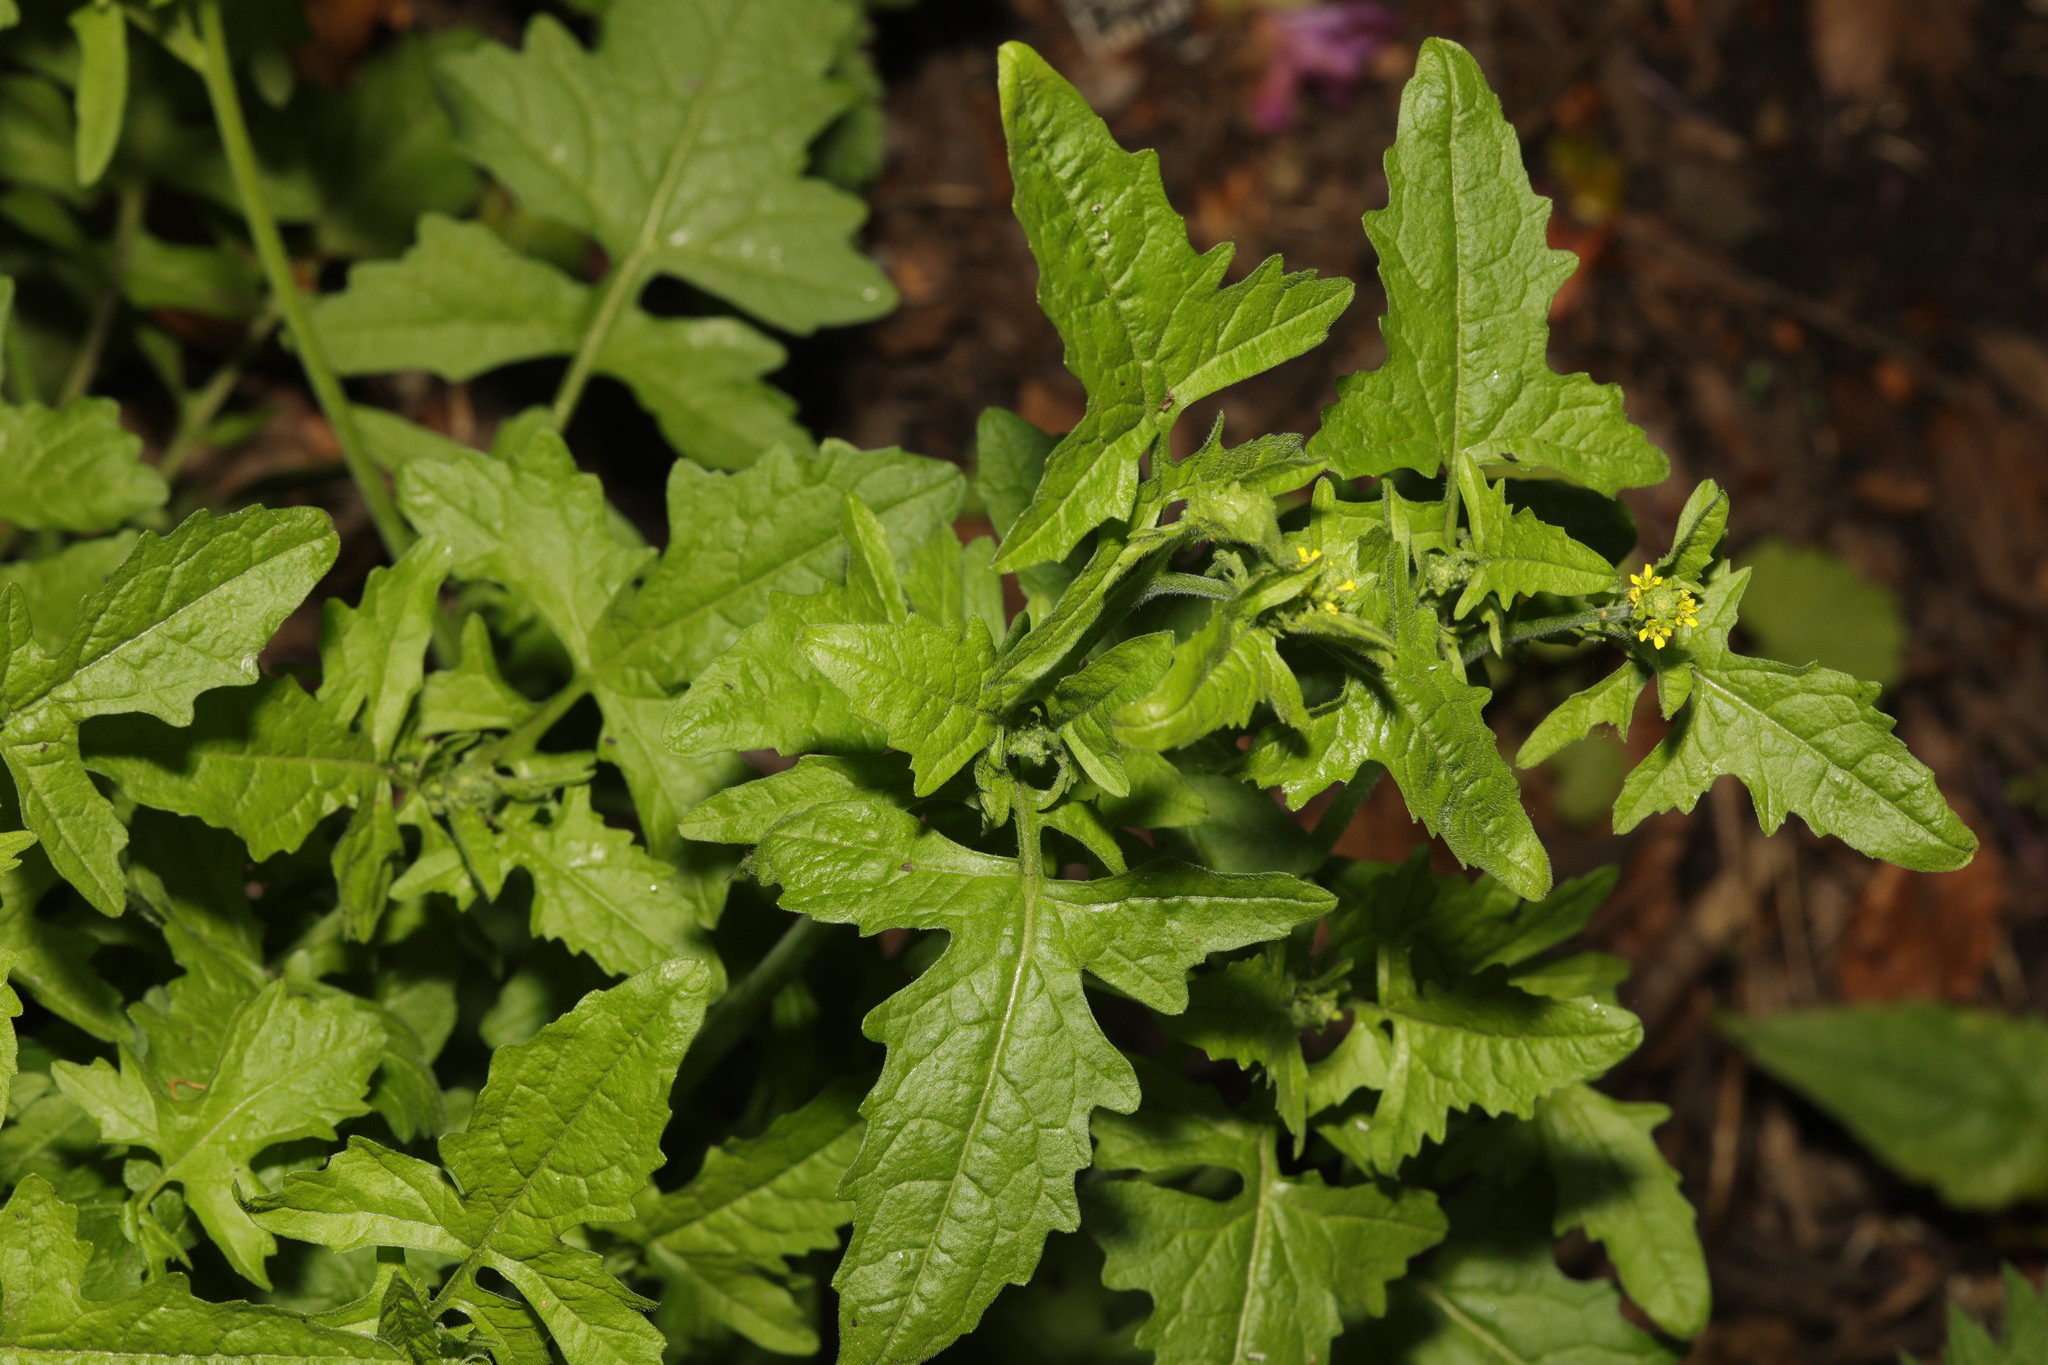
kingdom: Plantae
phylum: Tracheophyta
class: Magnoliopsida
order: Brassicales
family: Brassicaceae
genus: Sisymbrium
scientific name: Sisymbrium officinale
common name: Hedge mustard
